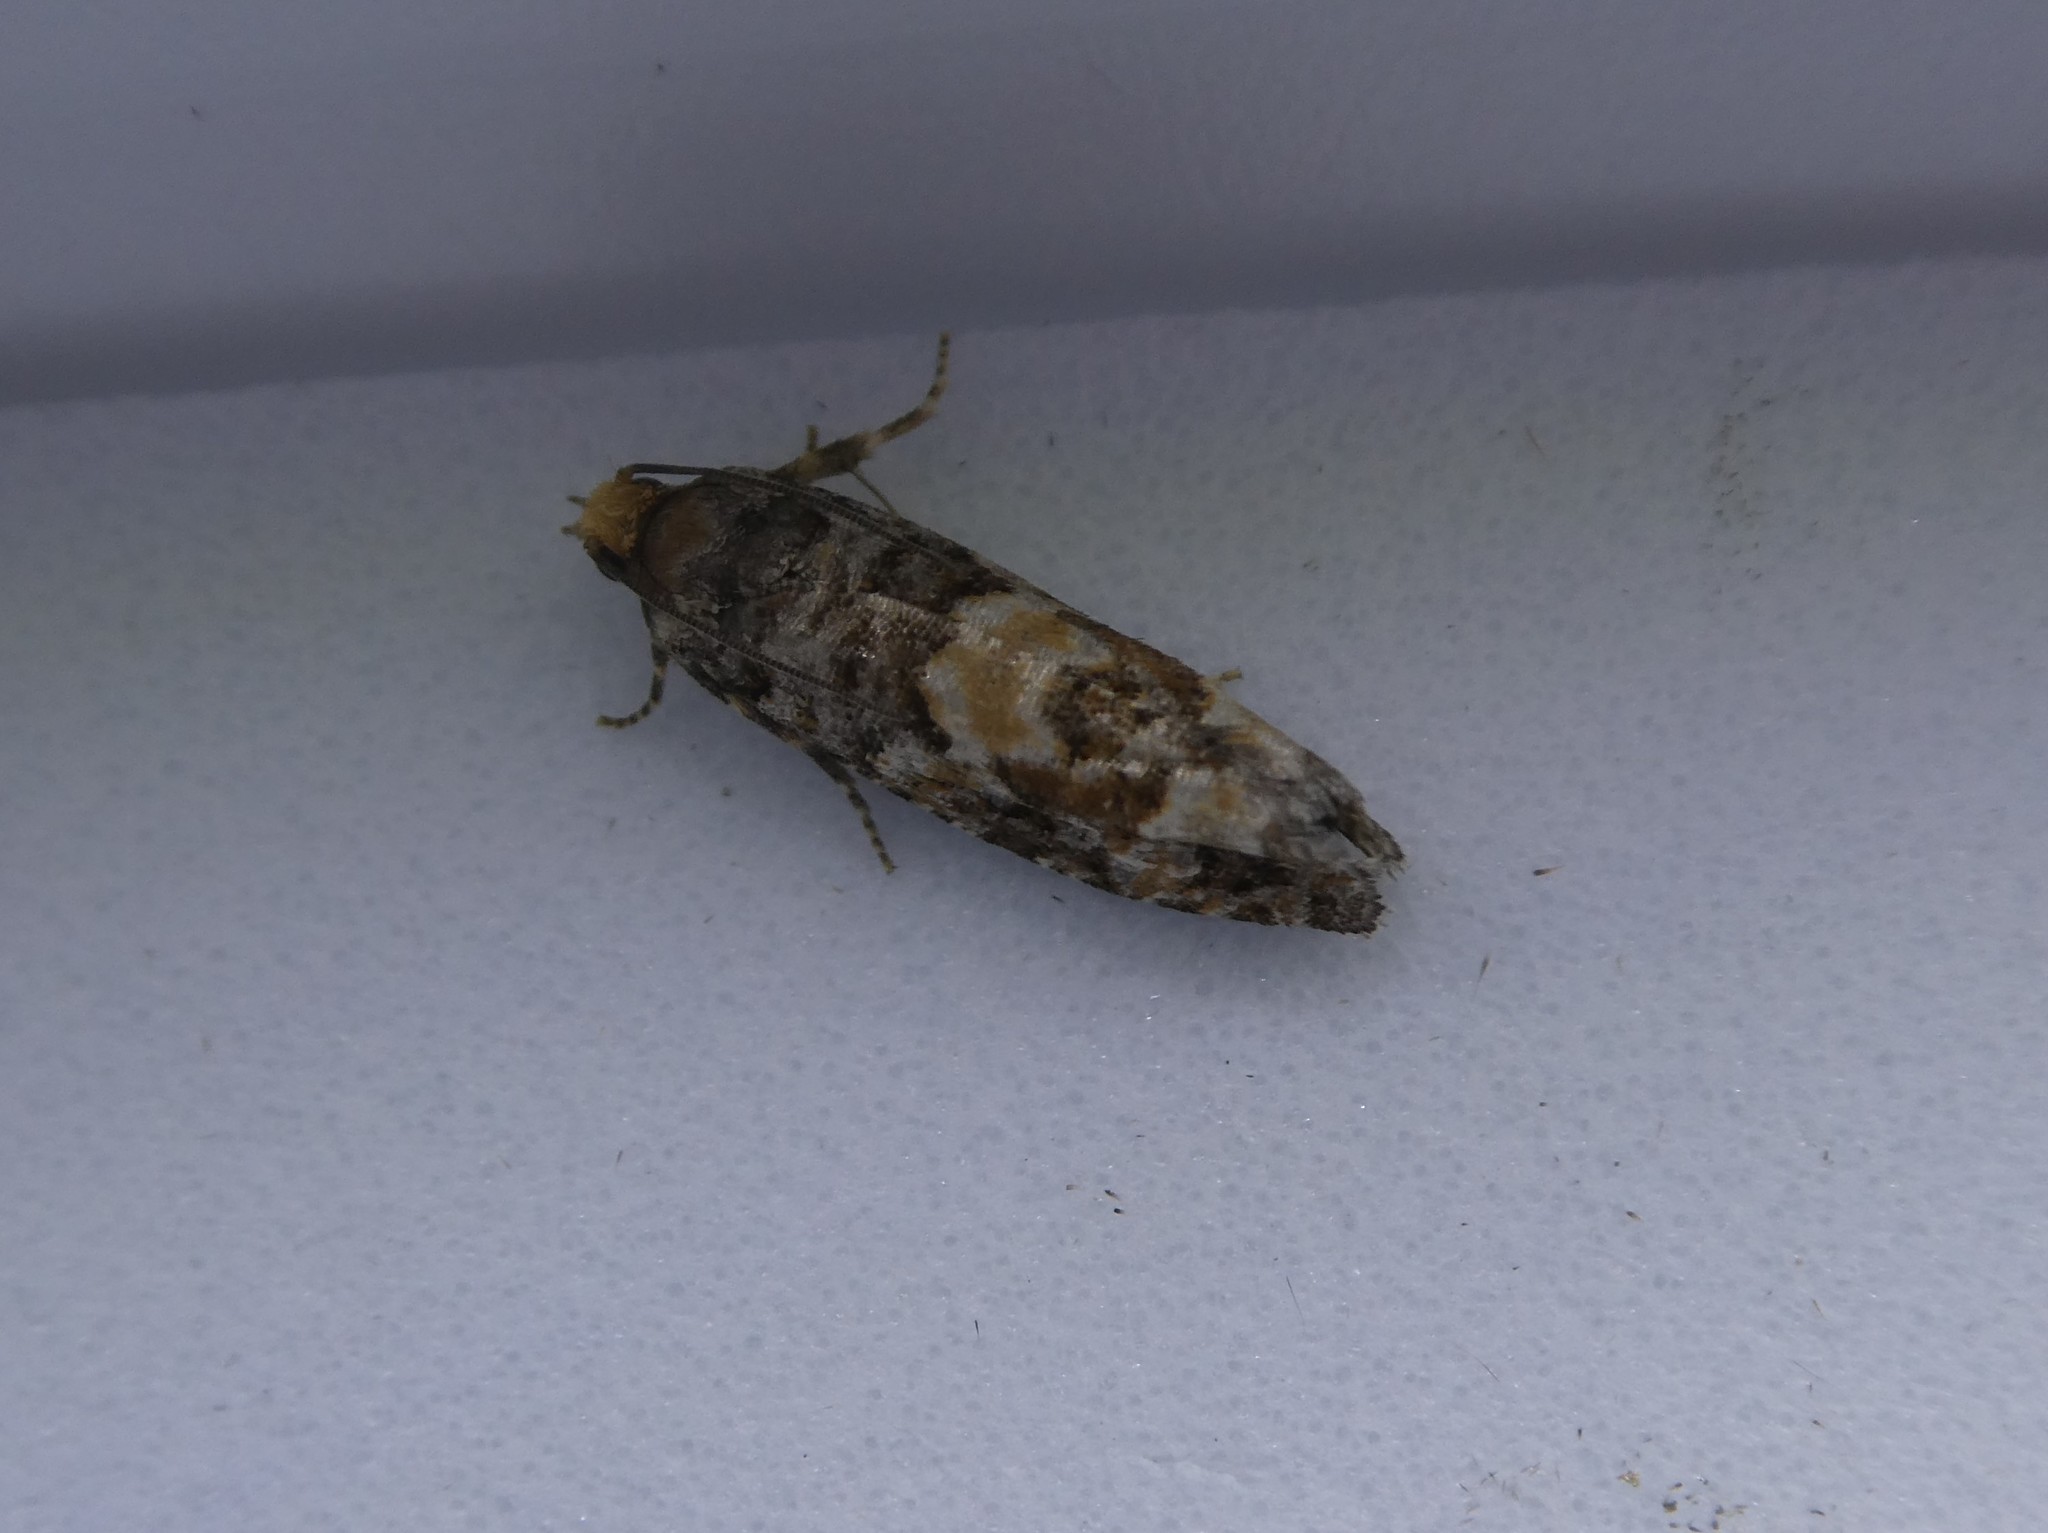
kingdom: Animalia
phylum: Arthropoda
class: Insecta
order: Lepidoptera
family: Tortricidae
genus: Eucopina
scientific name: Eucopina tocullionana
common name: White pinecone borer moth
